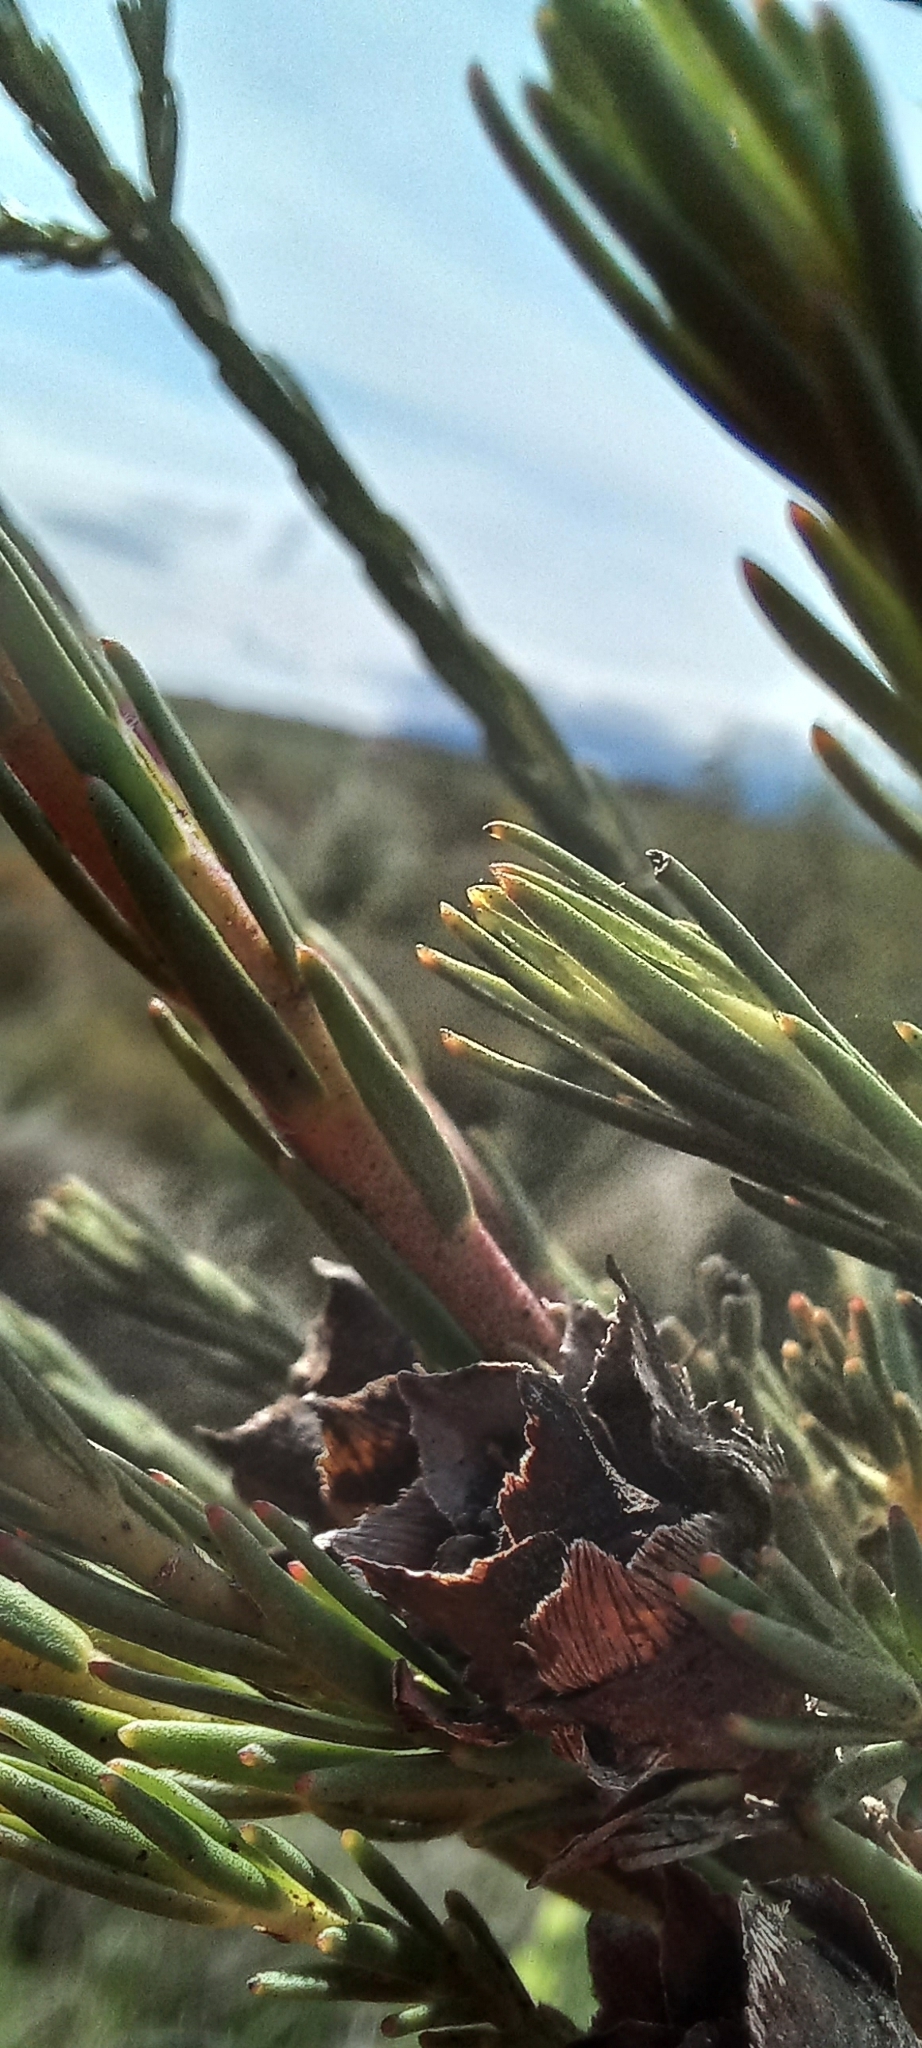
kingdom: Plantae
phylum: Tracheophyta
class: Magnoliopsida
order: Proteales
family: Proteaceae
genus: Leucadendron
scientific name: Leucadendron corymbosum
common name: Swartveld conebush
